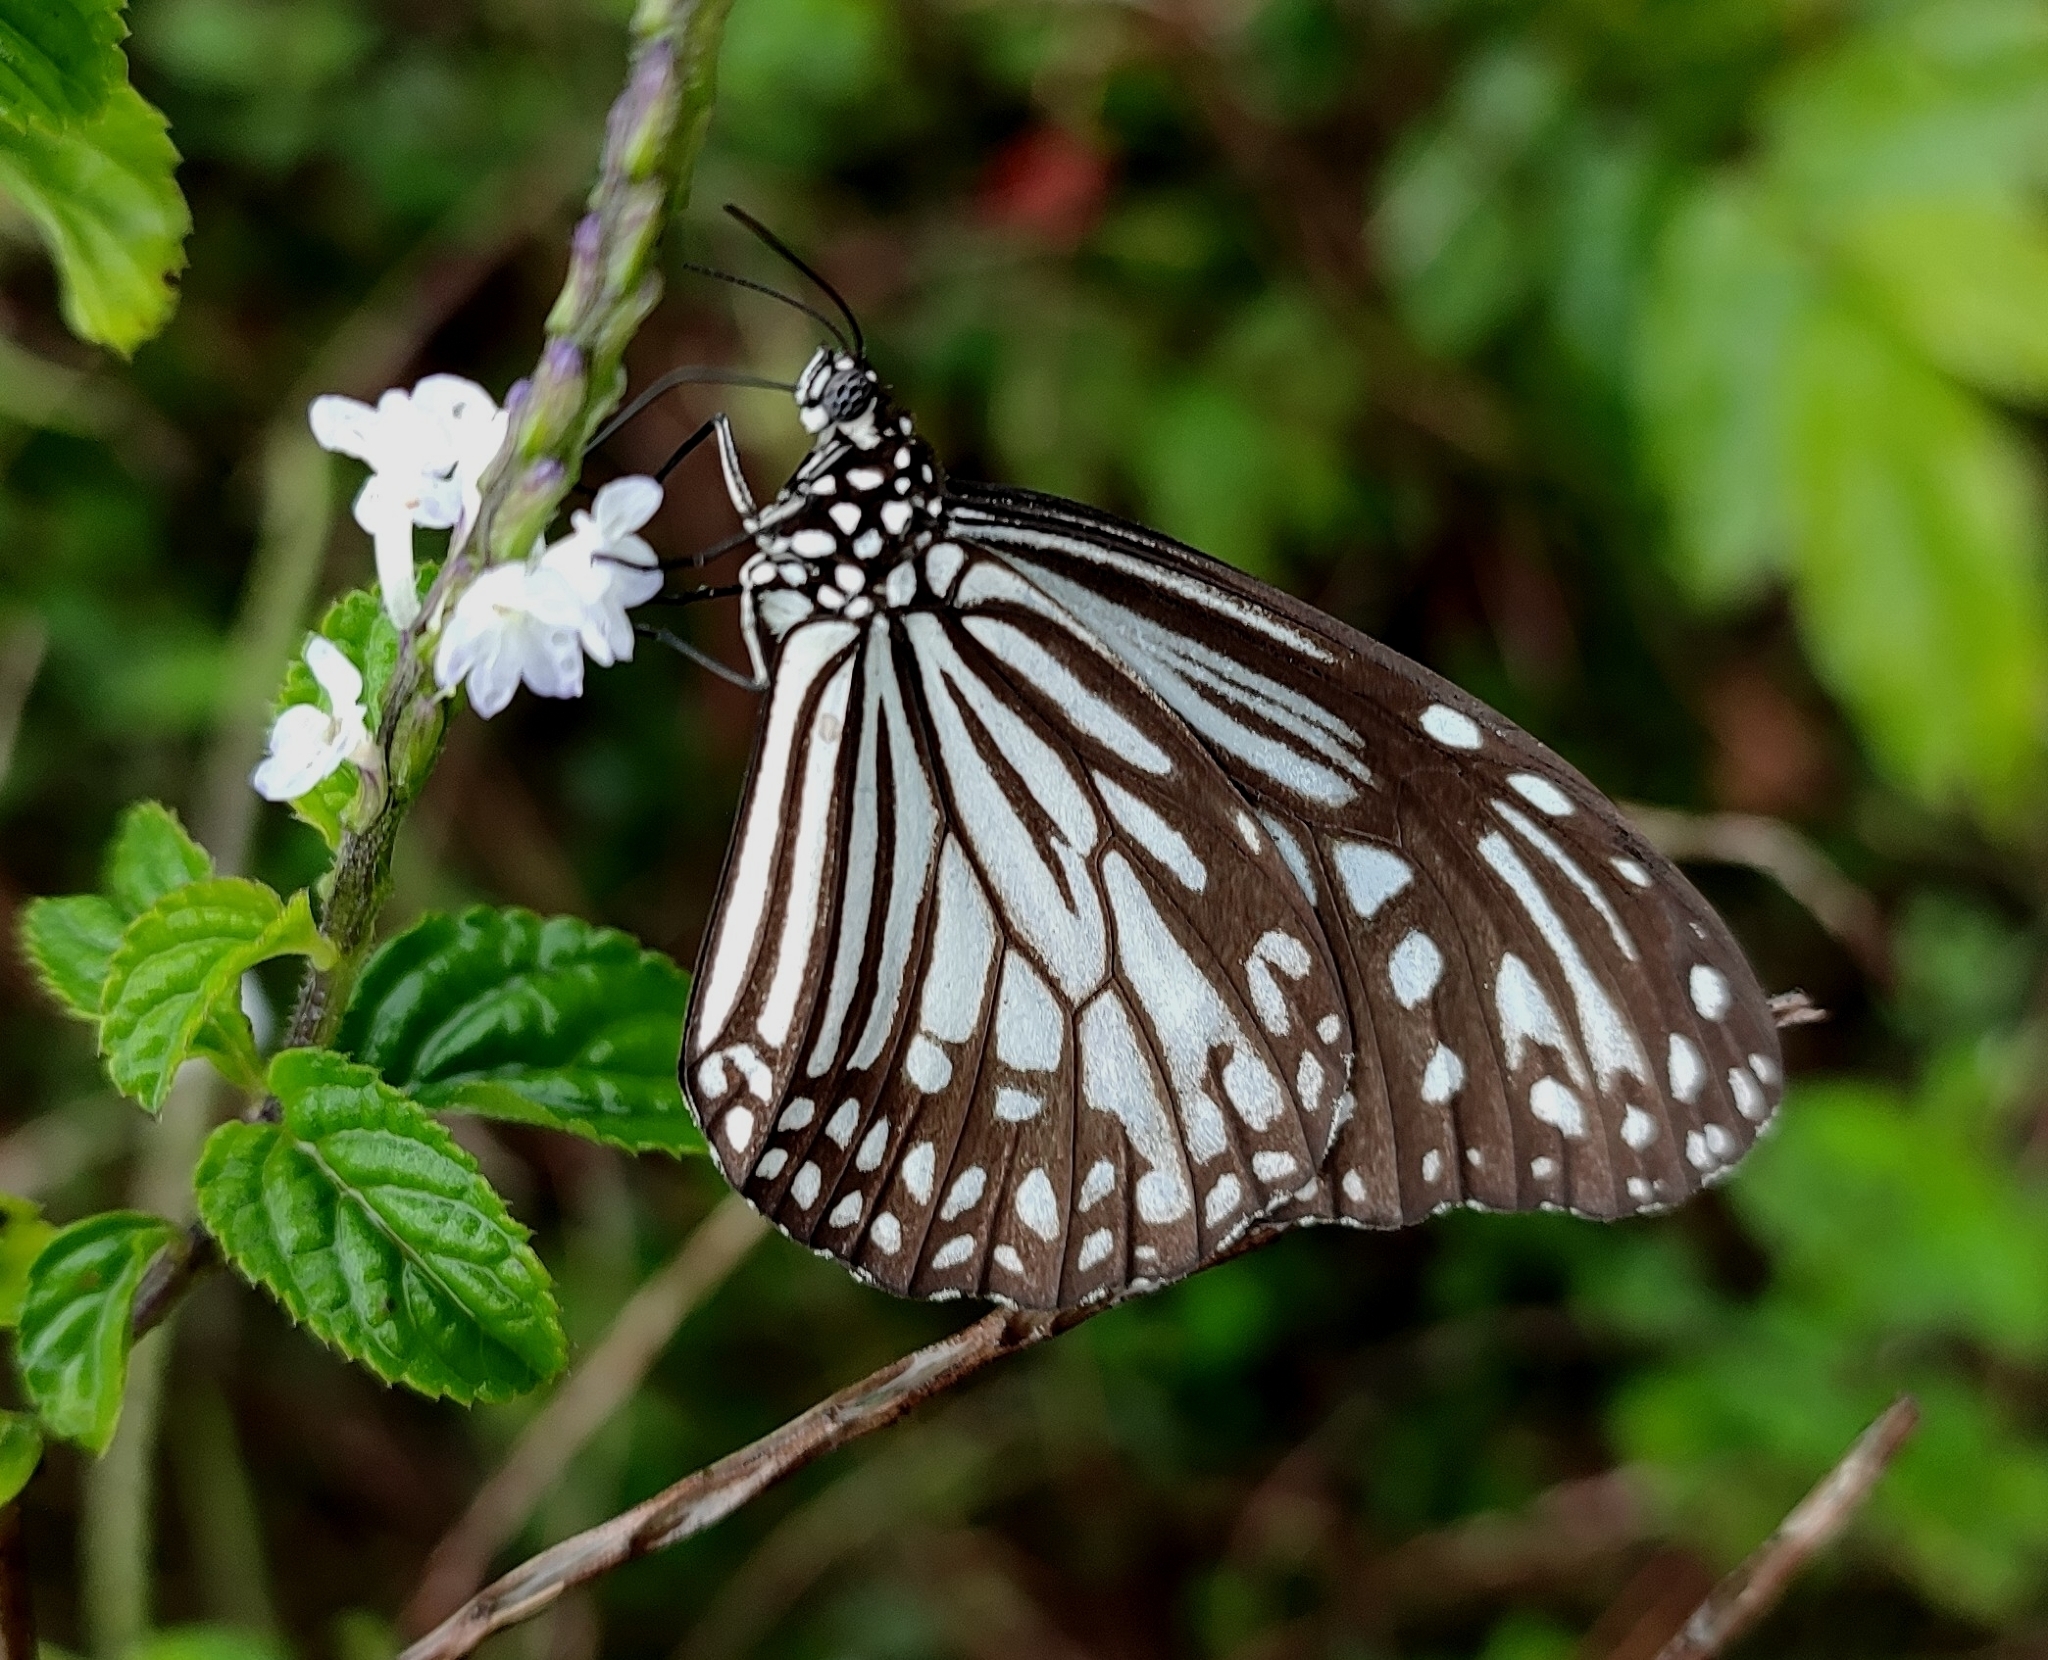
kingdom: Animalia
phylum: Arthropoda
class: Insecta
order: Lepidoptera
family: Nymphalidae
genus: Parantica
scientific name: Parantica aglea
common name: Glassy tiger
